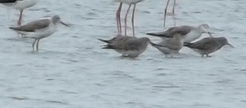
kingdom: Animalia
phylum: Chordata
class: Aves
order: Charadriiformes
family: Scolopacidae
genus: Tringa
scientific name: Tringa nebularia
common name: Common greenshank
